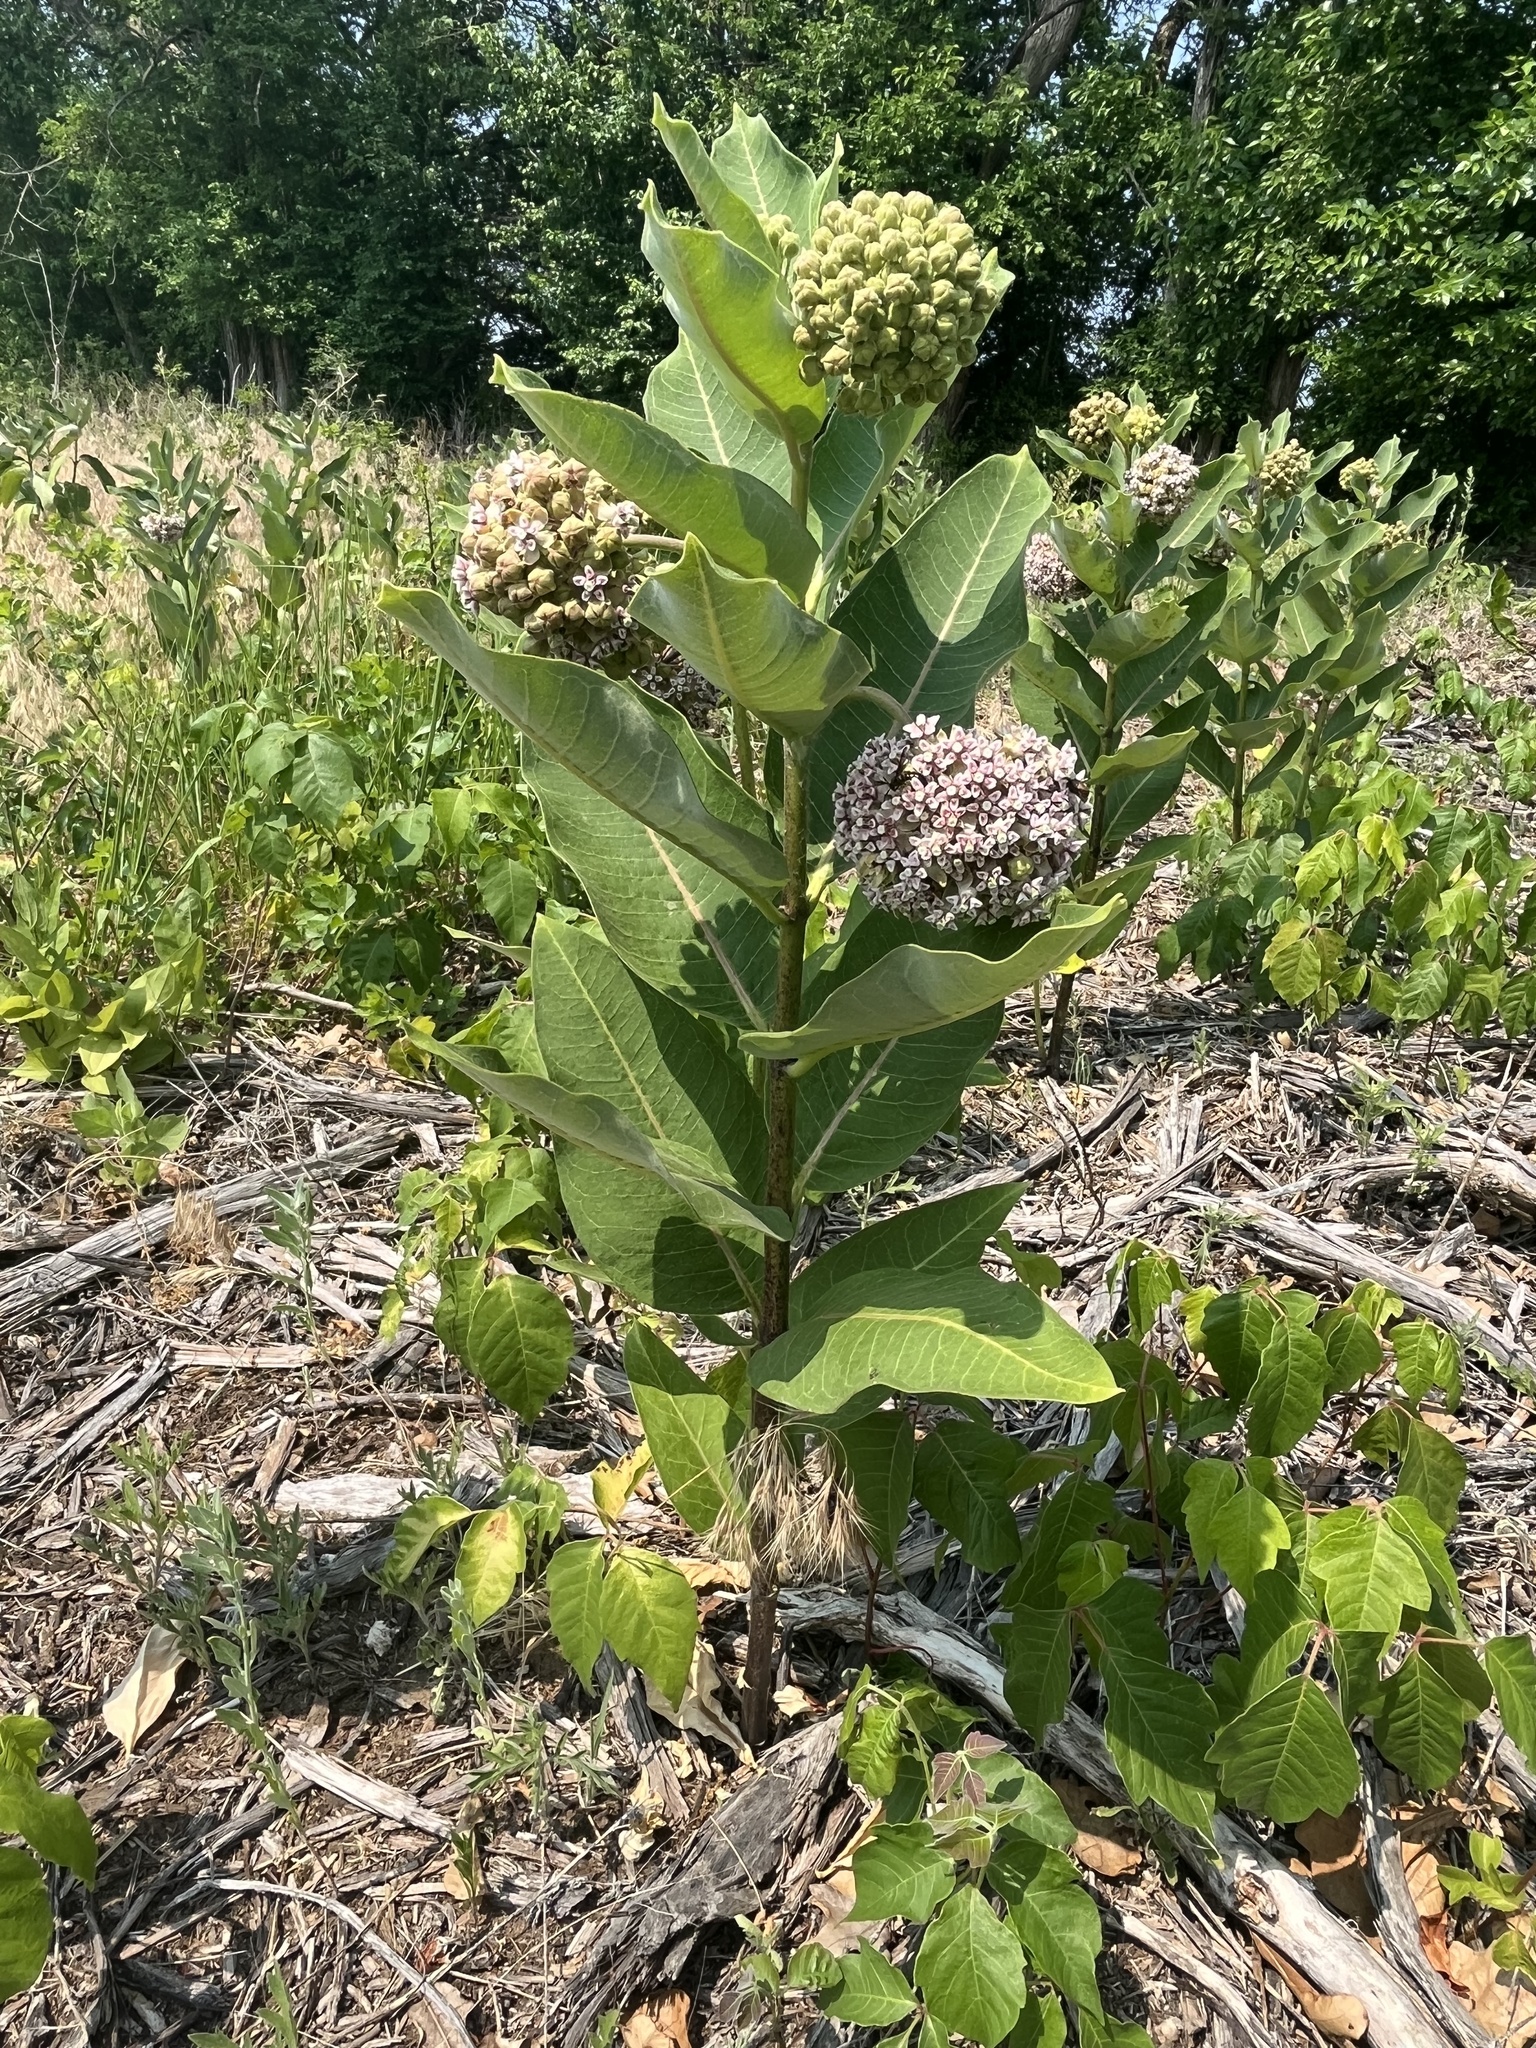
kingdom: Plantae
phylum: Tracheophyta
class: Magnoliopsida
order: Gentianales
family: Apocynaceae
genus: Asclepias
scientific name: Asclepias syriaca
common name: Common milkweed
